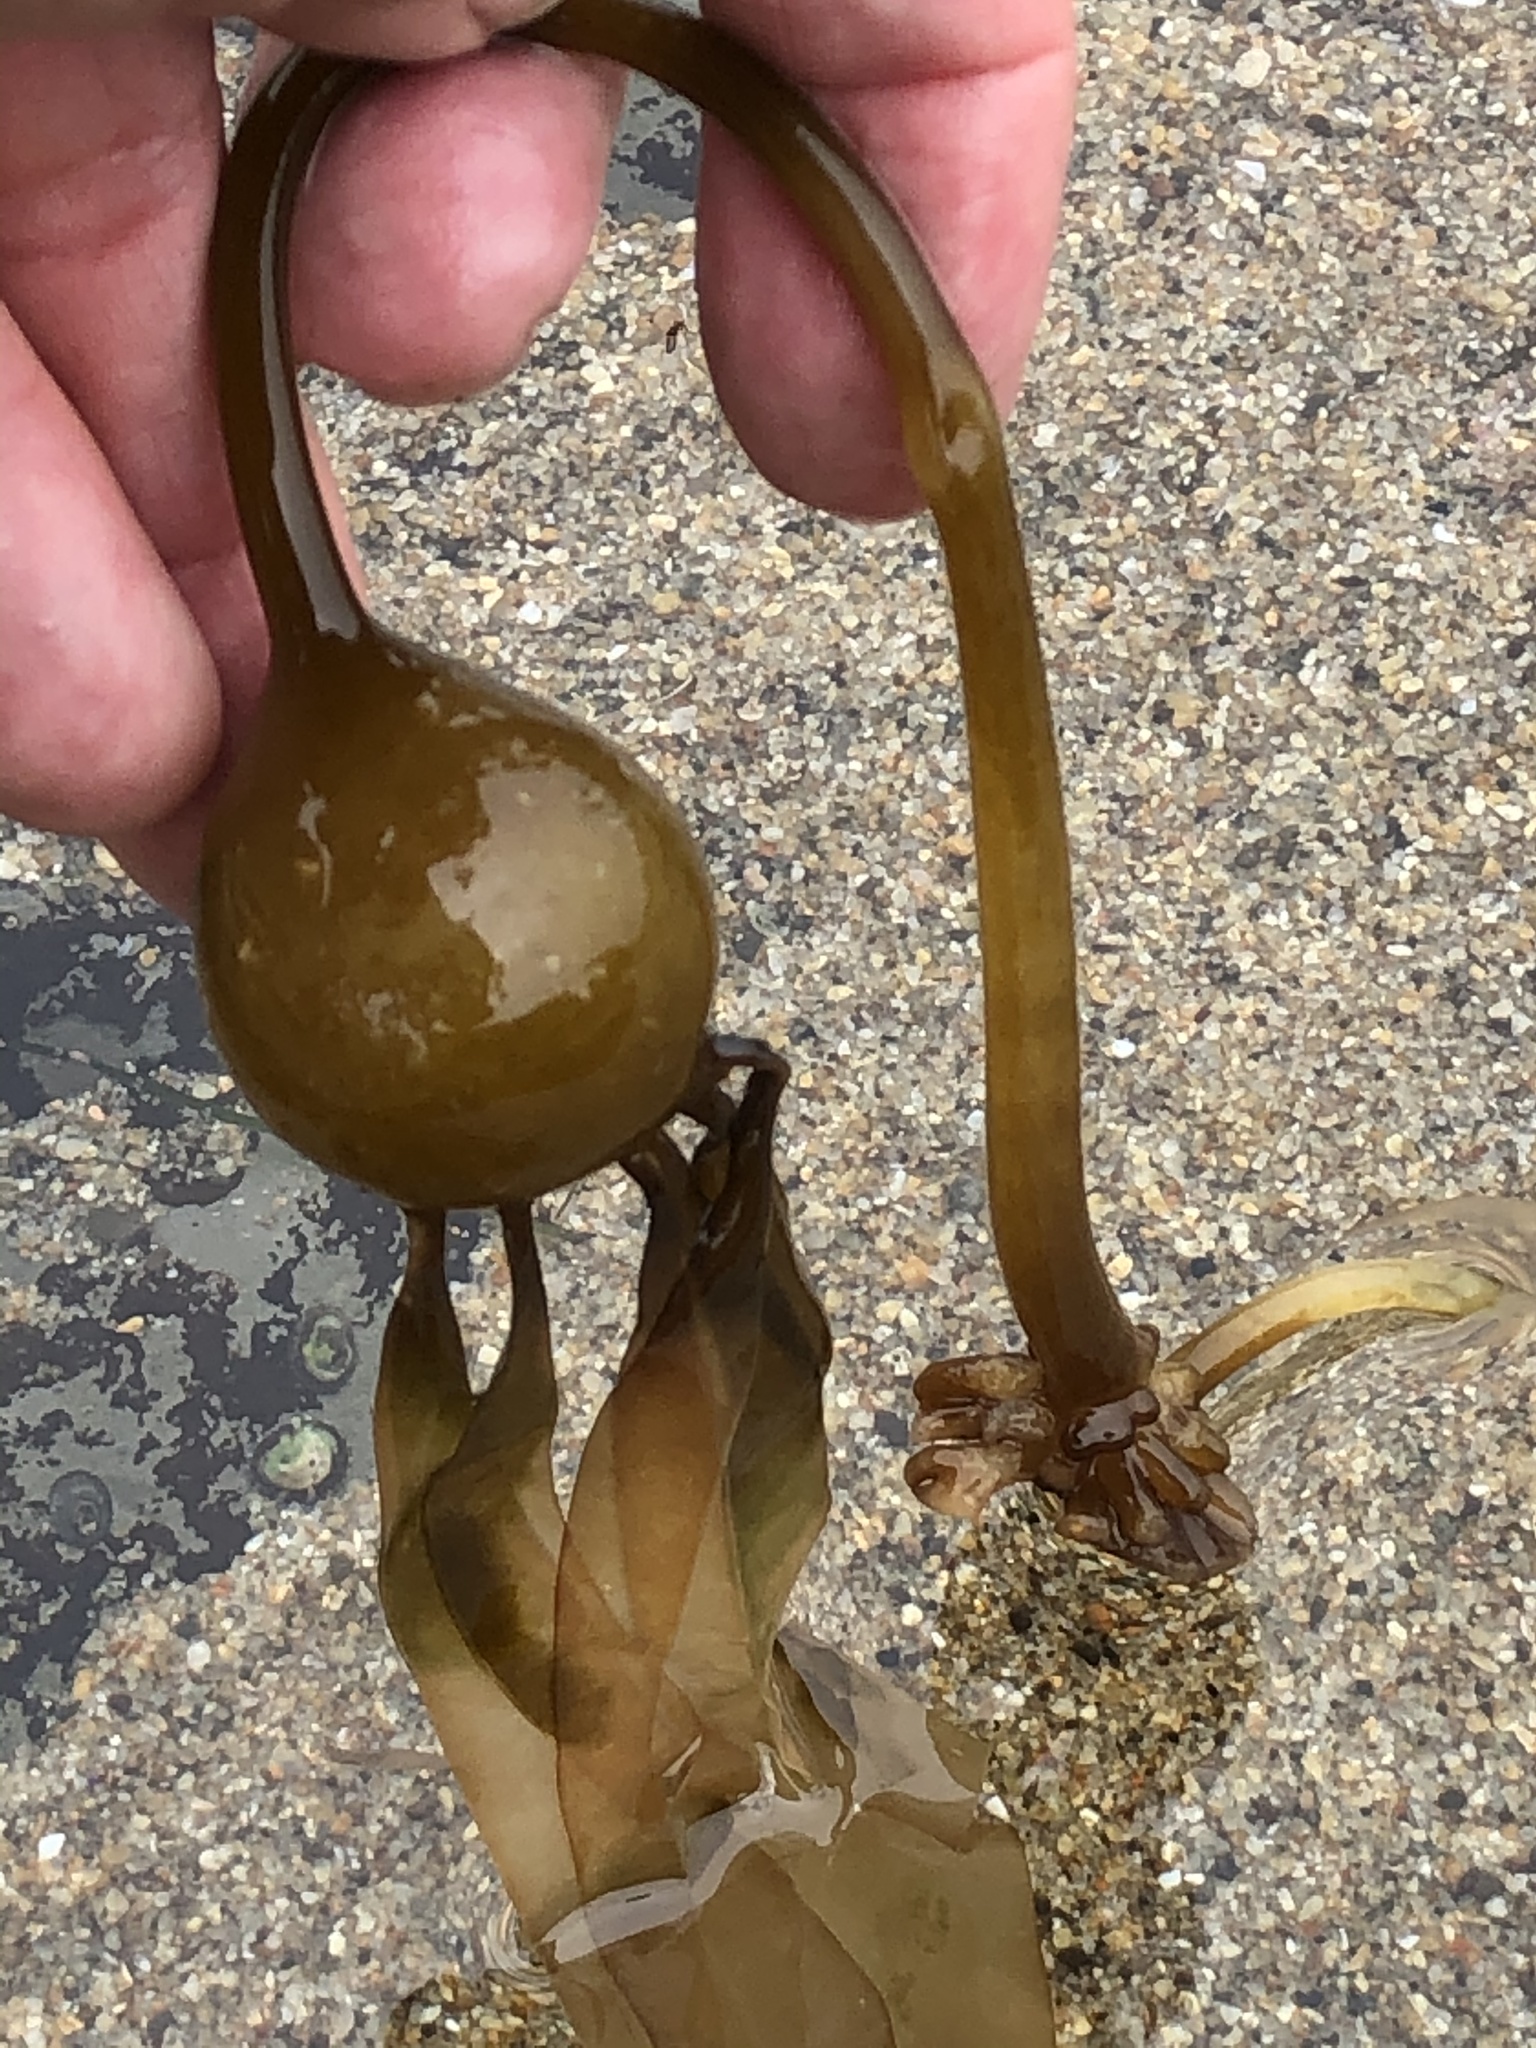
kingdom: Chromista
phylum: Ochrophyta
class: Phaeophyceae
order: Laminariales
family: Laminariaceae
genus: Nereocystis
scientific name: Nereocystis luetkeana
